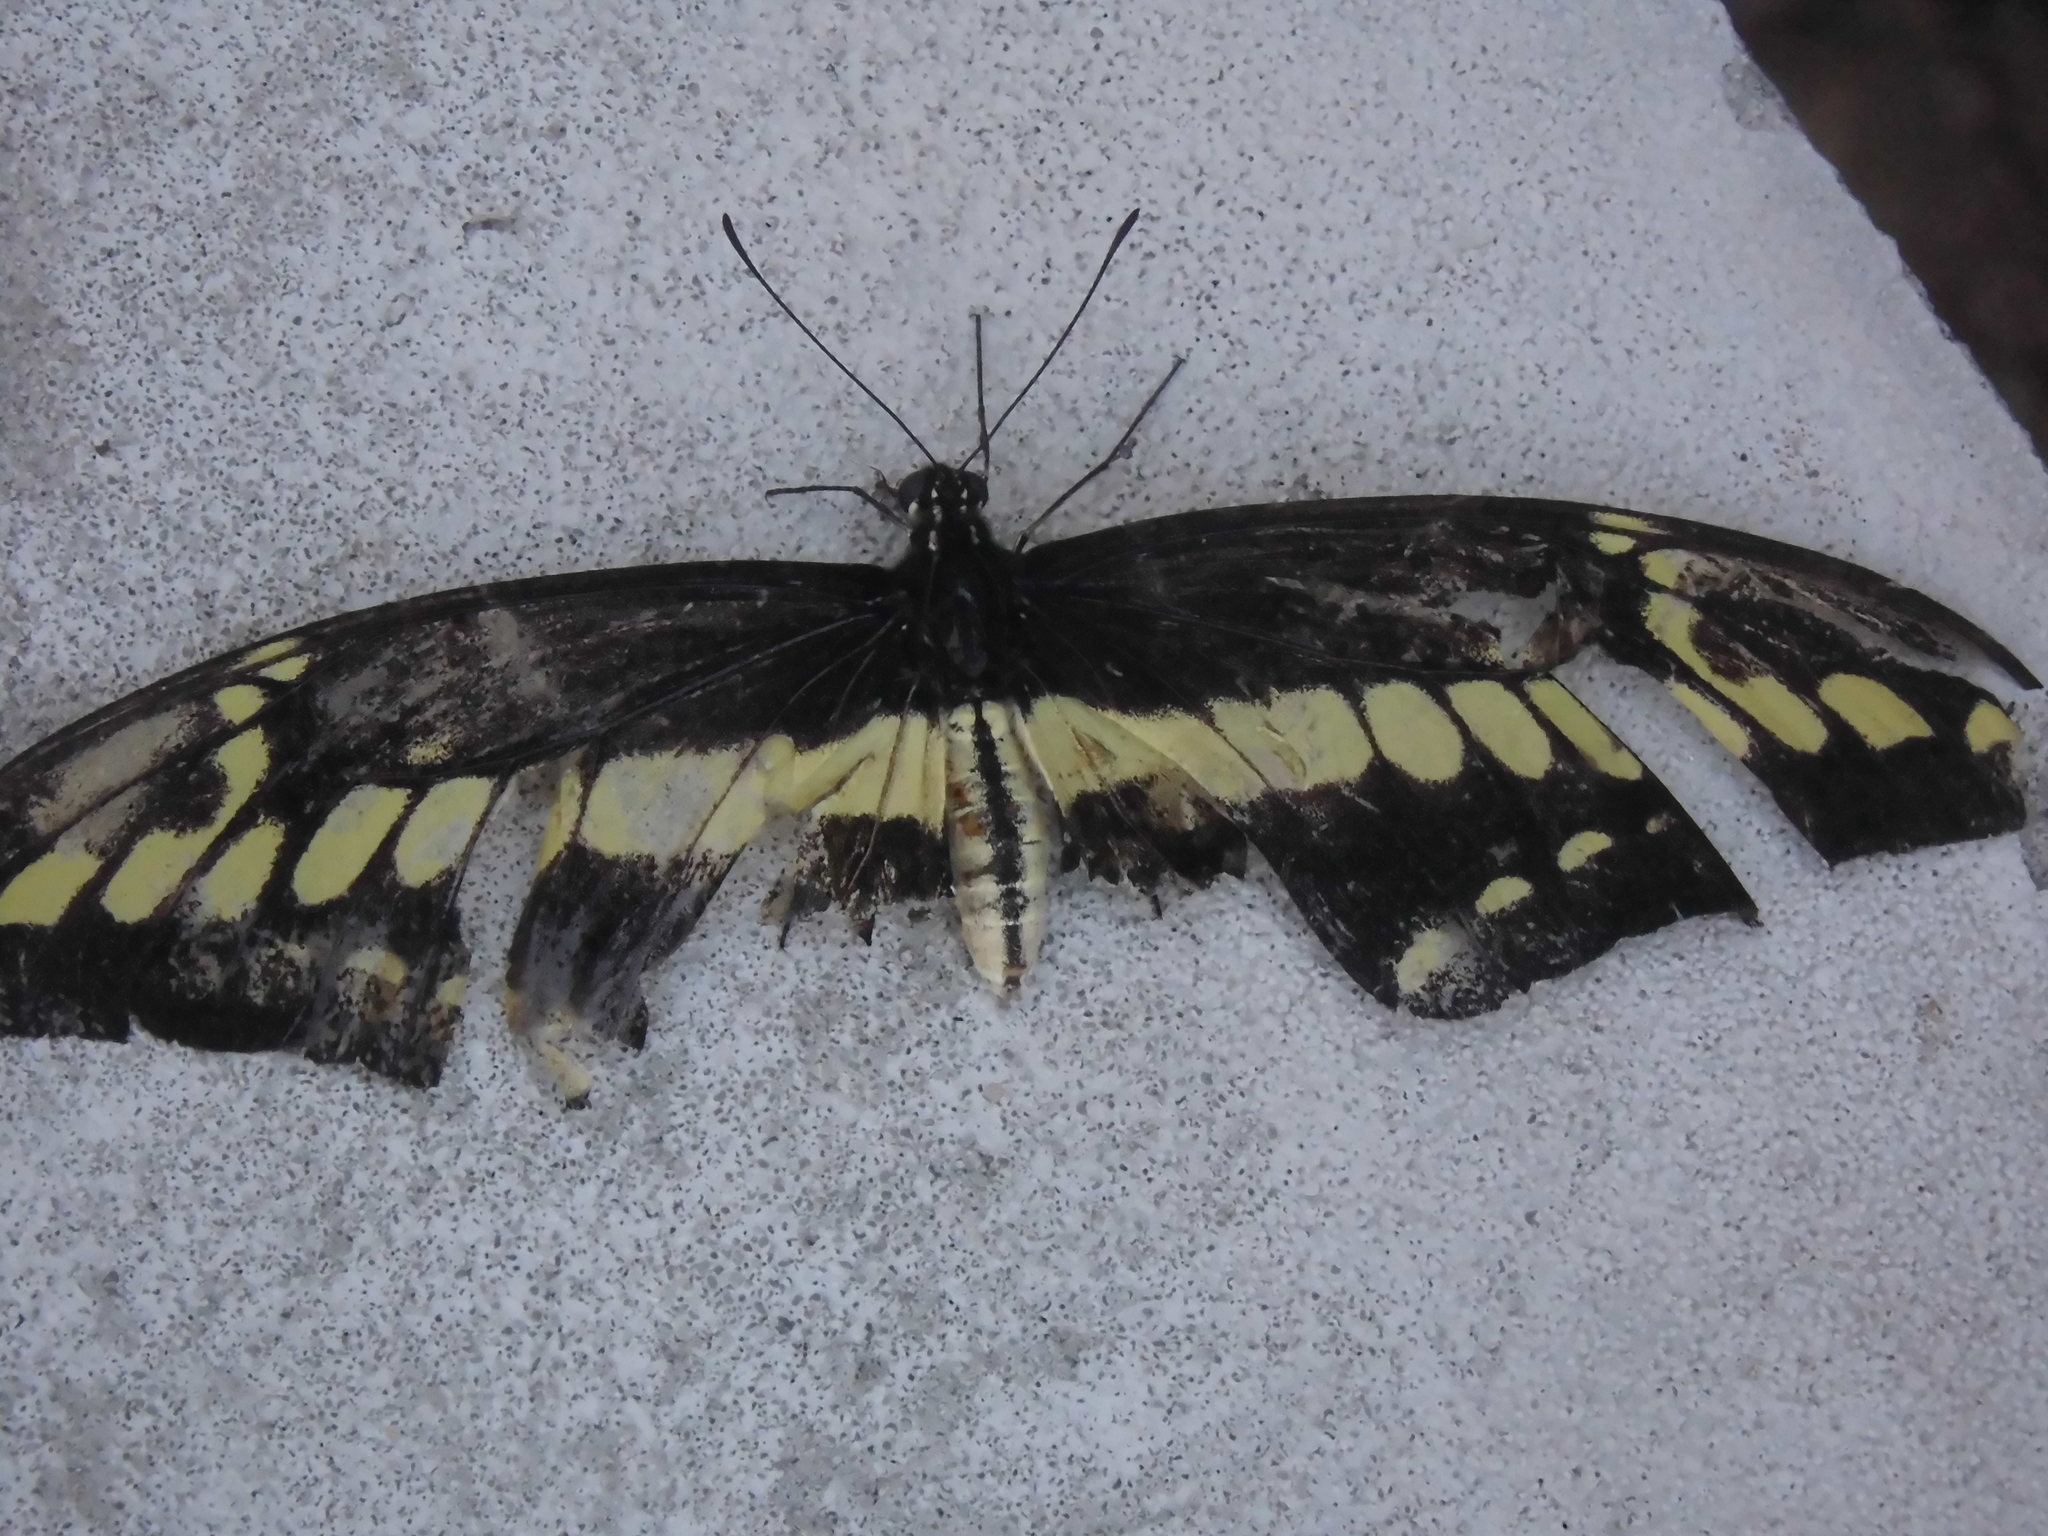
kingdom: Animalia
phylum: Arthropoda
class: Insecta
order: Lepidoptera
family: Papilionidae
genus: Papilio
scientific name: Papilio thoas
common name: King swallowtail
